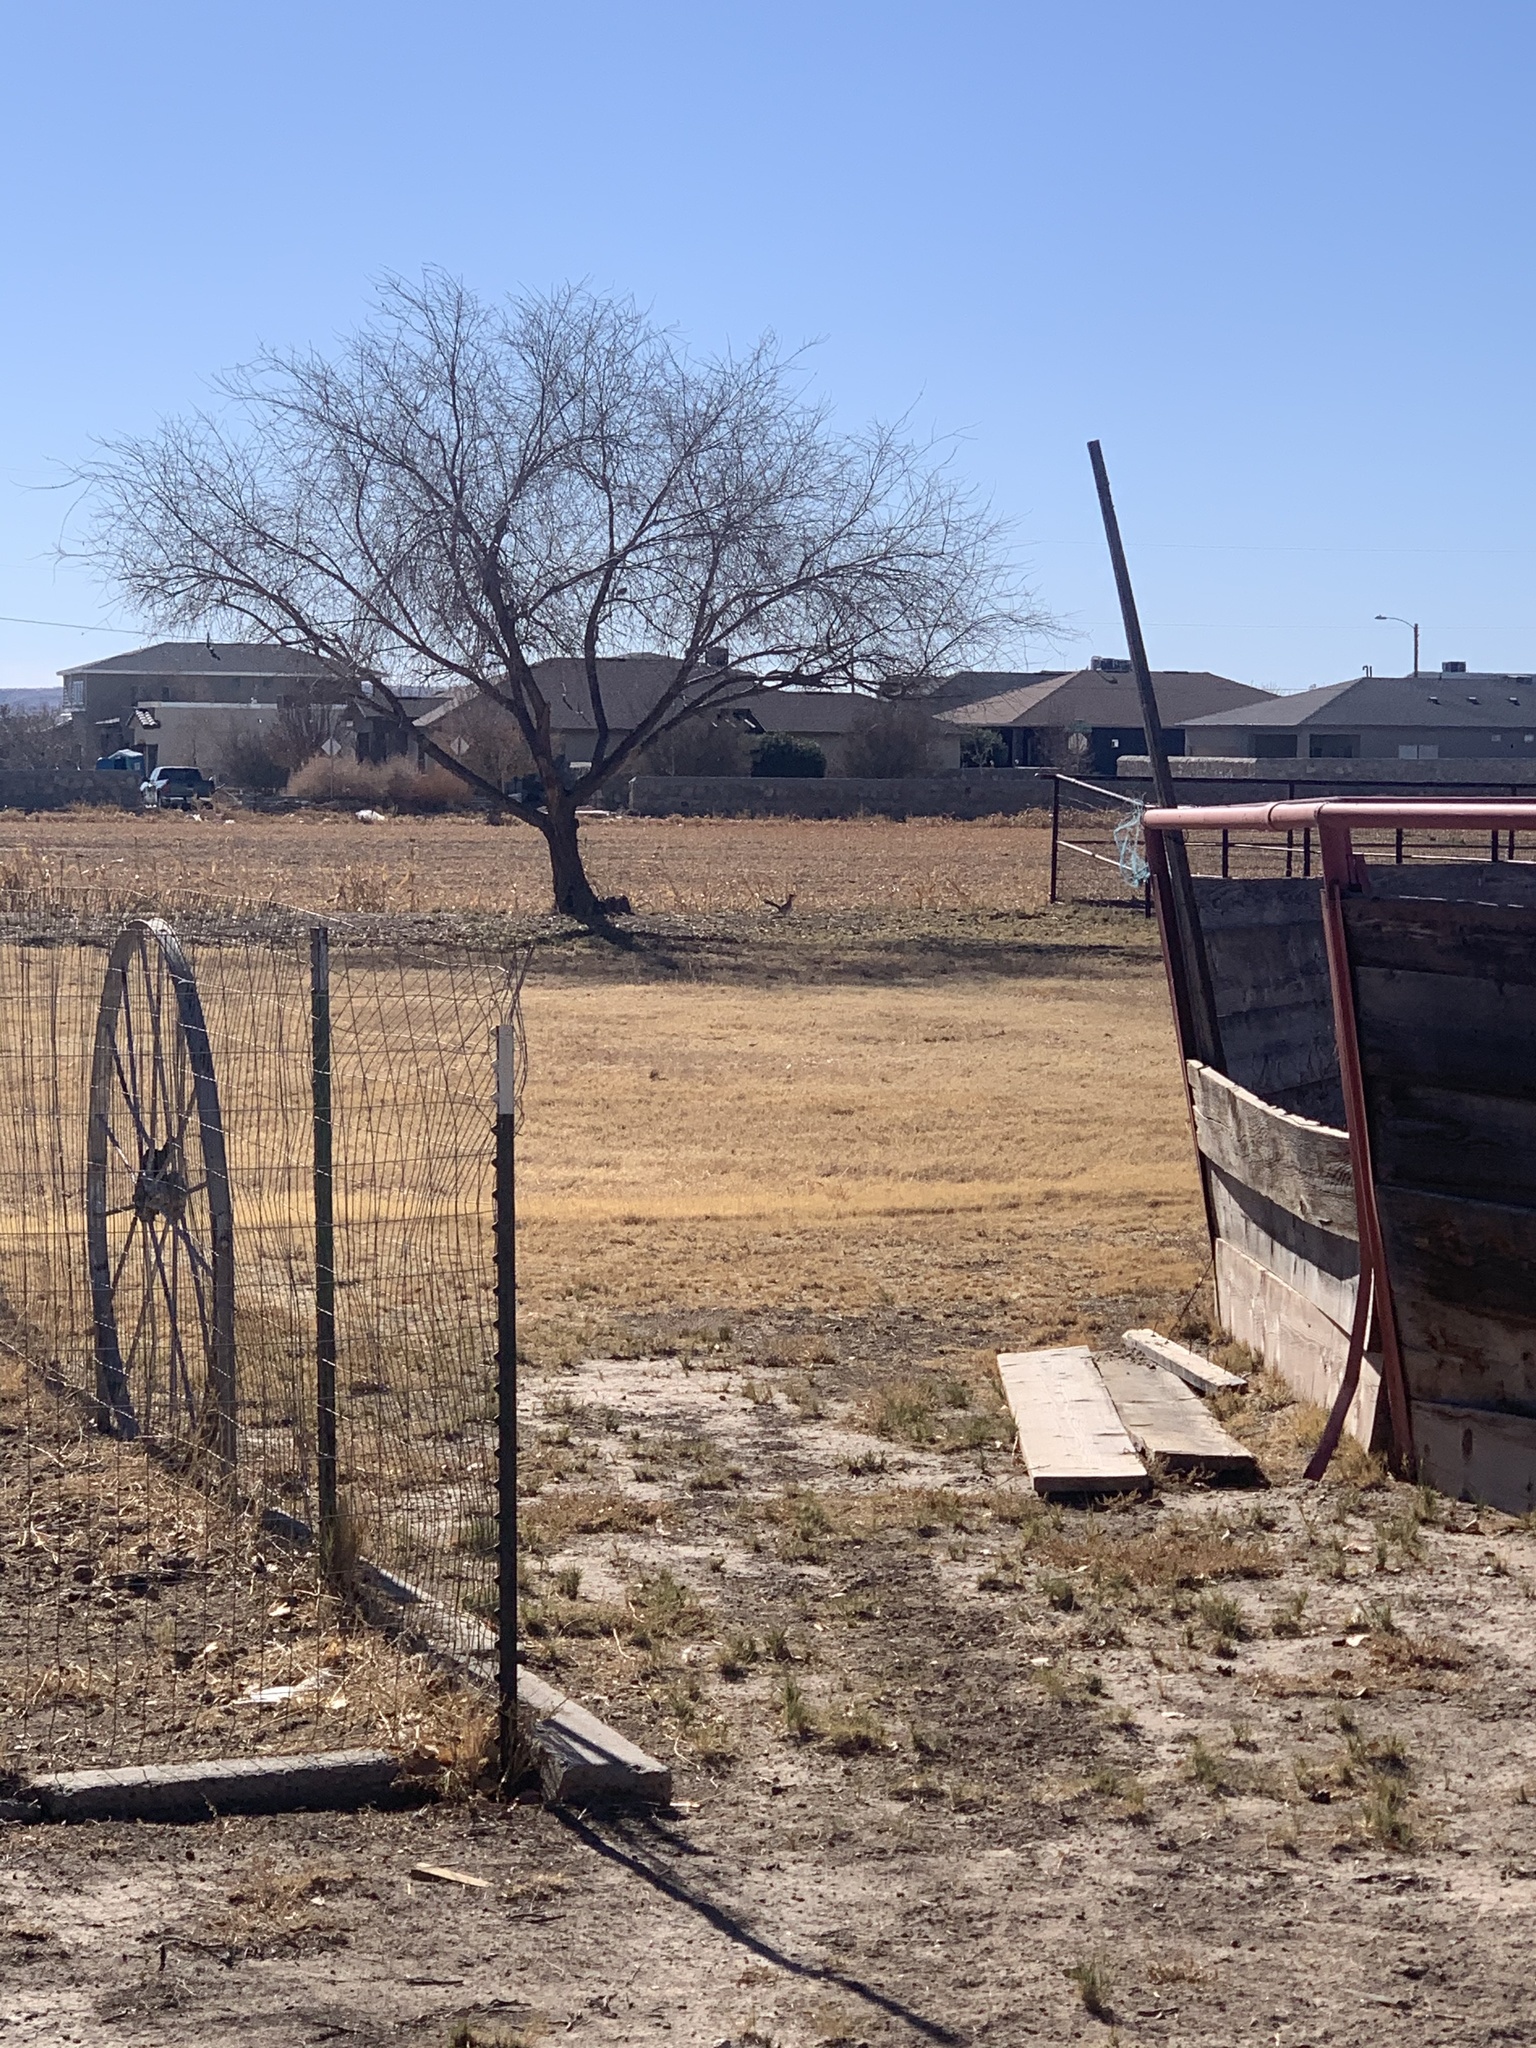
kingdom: Animalia
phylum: Chordata
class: Aves
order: Cuculiformes
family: Cuculidae
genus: Geococcyx
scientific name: Geococcyx californianus
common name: Greater roadrunner
